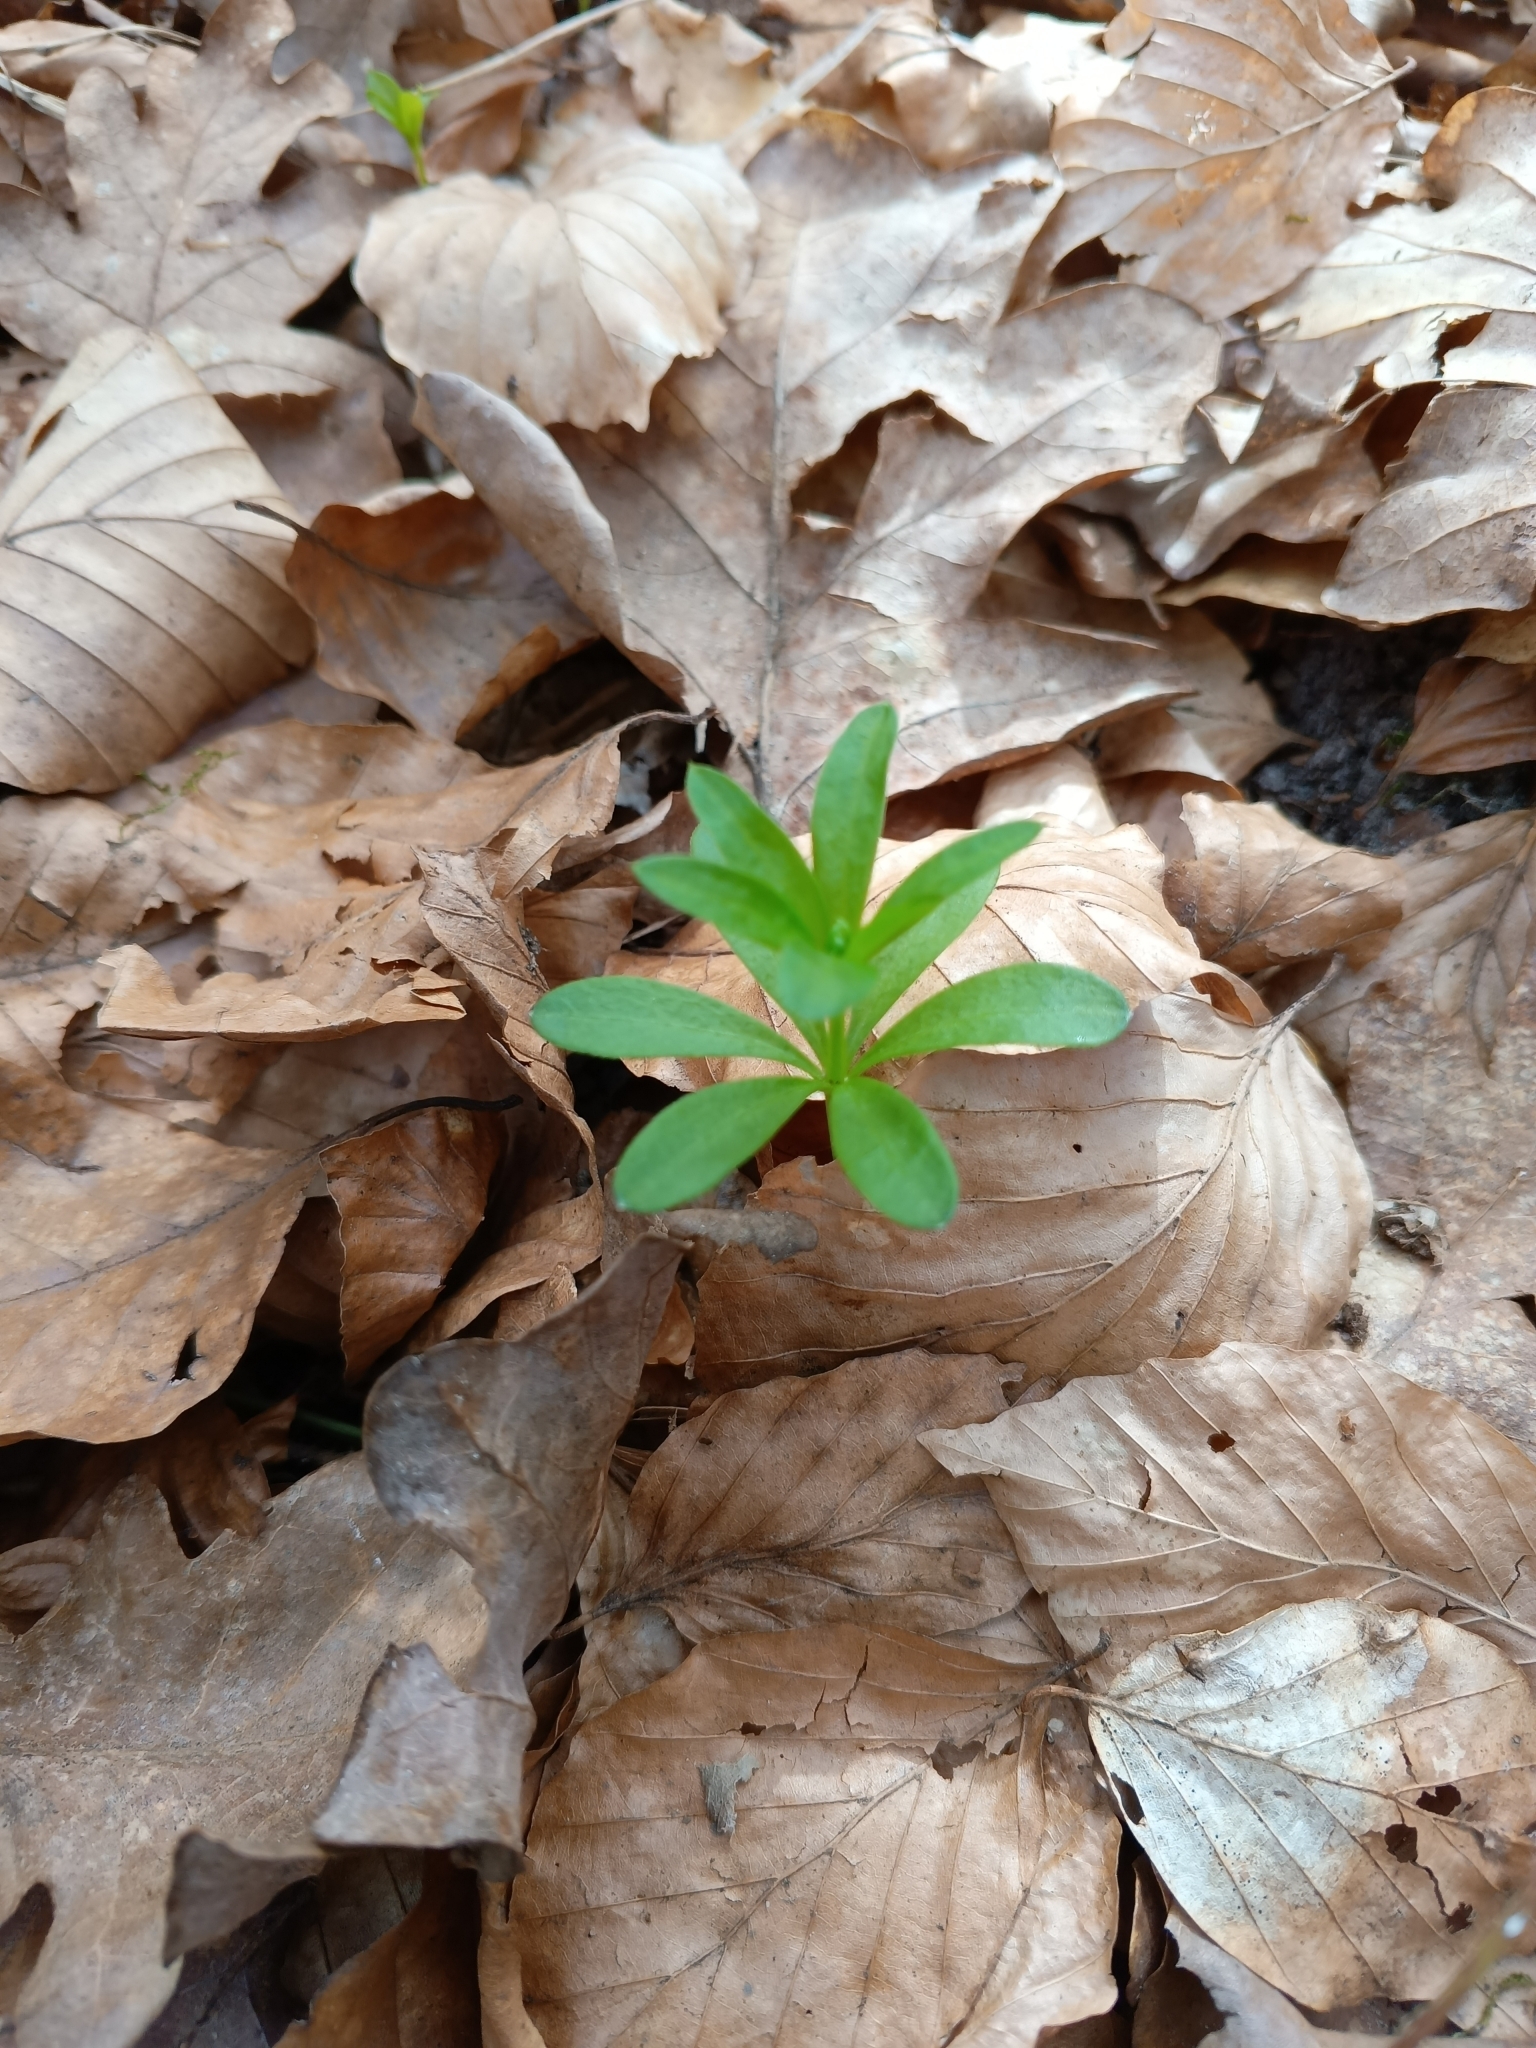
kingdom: Plantae
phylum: Tracheophyta
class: Magnoliopsida
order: Gentianales
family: Rubiaceae
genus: Galium
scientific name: Galium odoratum
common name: Sweet woodruff
